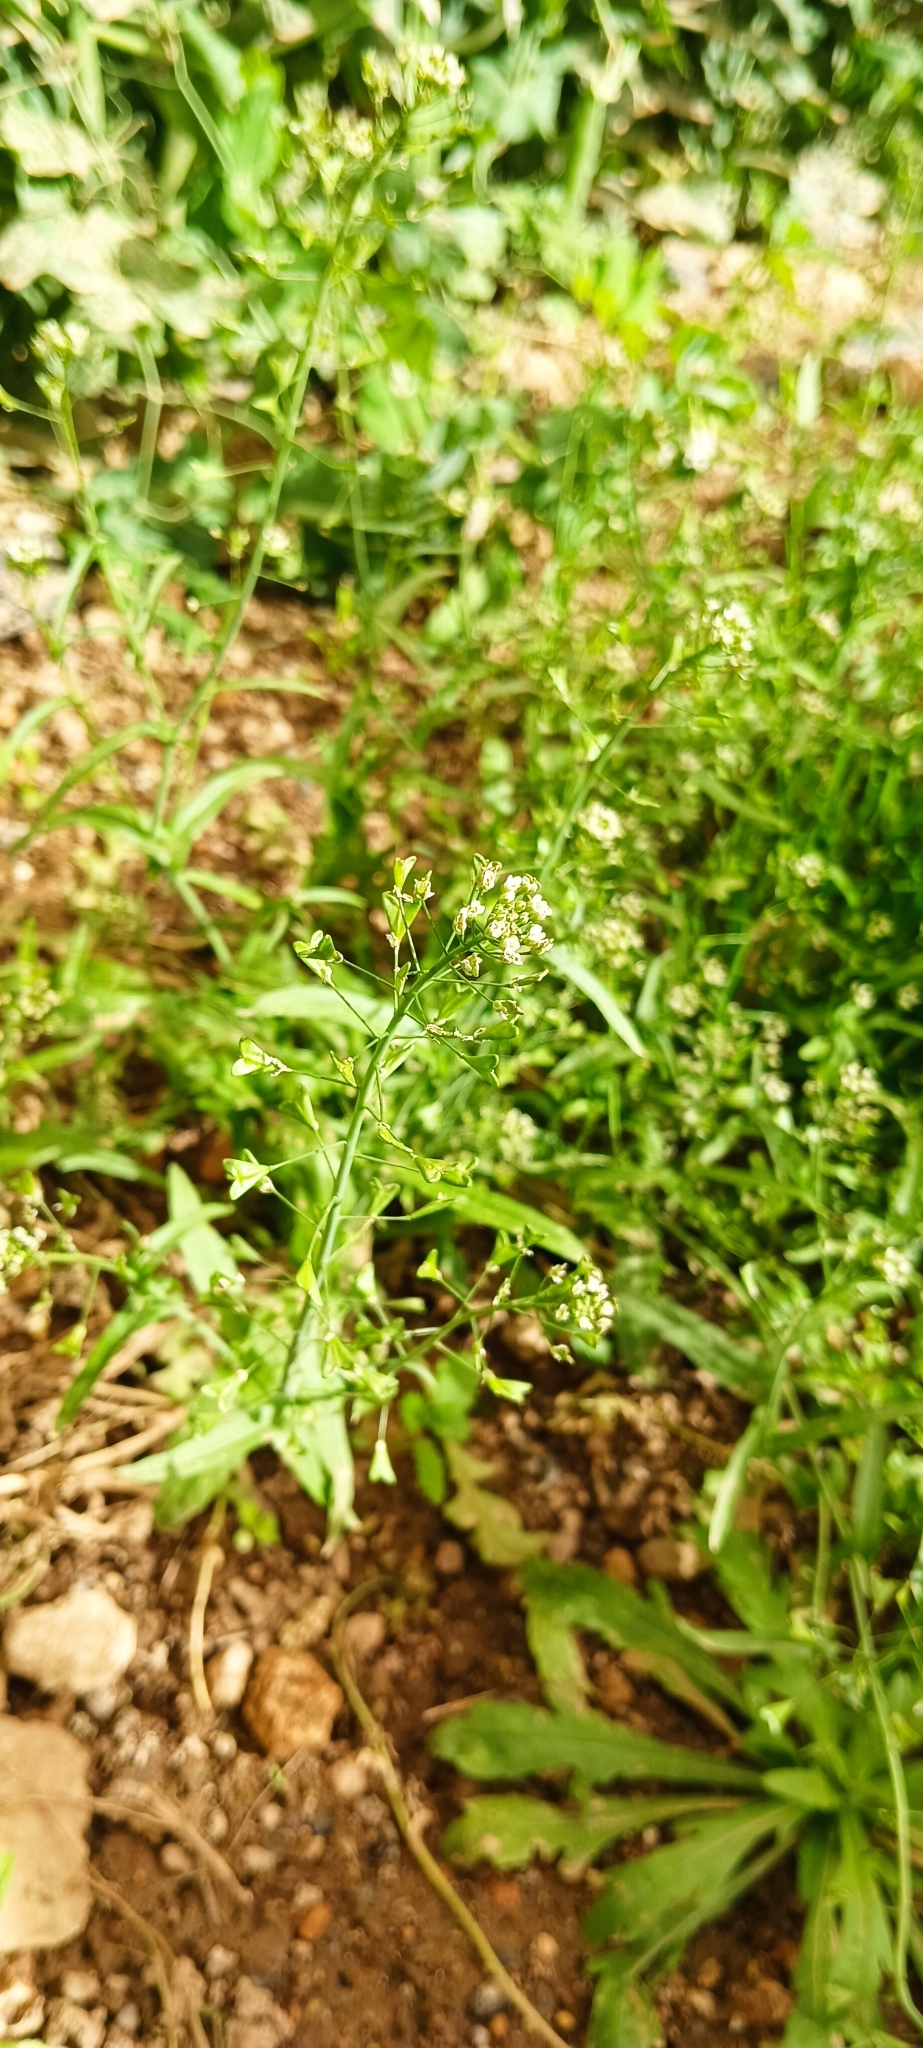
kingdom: Plantae
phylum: Tracheophyta
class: Magnoliopsida
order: Brassicales
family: Brassicaceae
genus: Capsella
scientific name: Capsella bursa-pastoris
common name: Shepherd's purse
